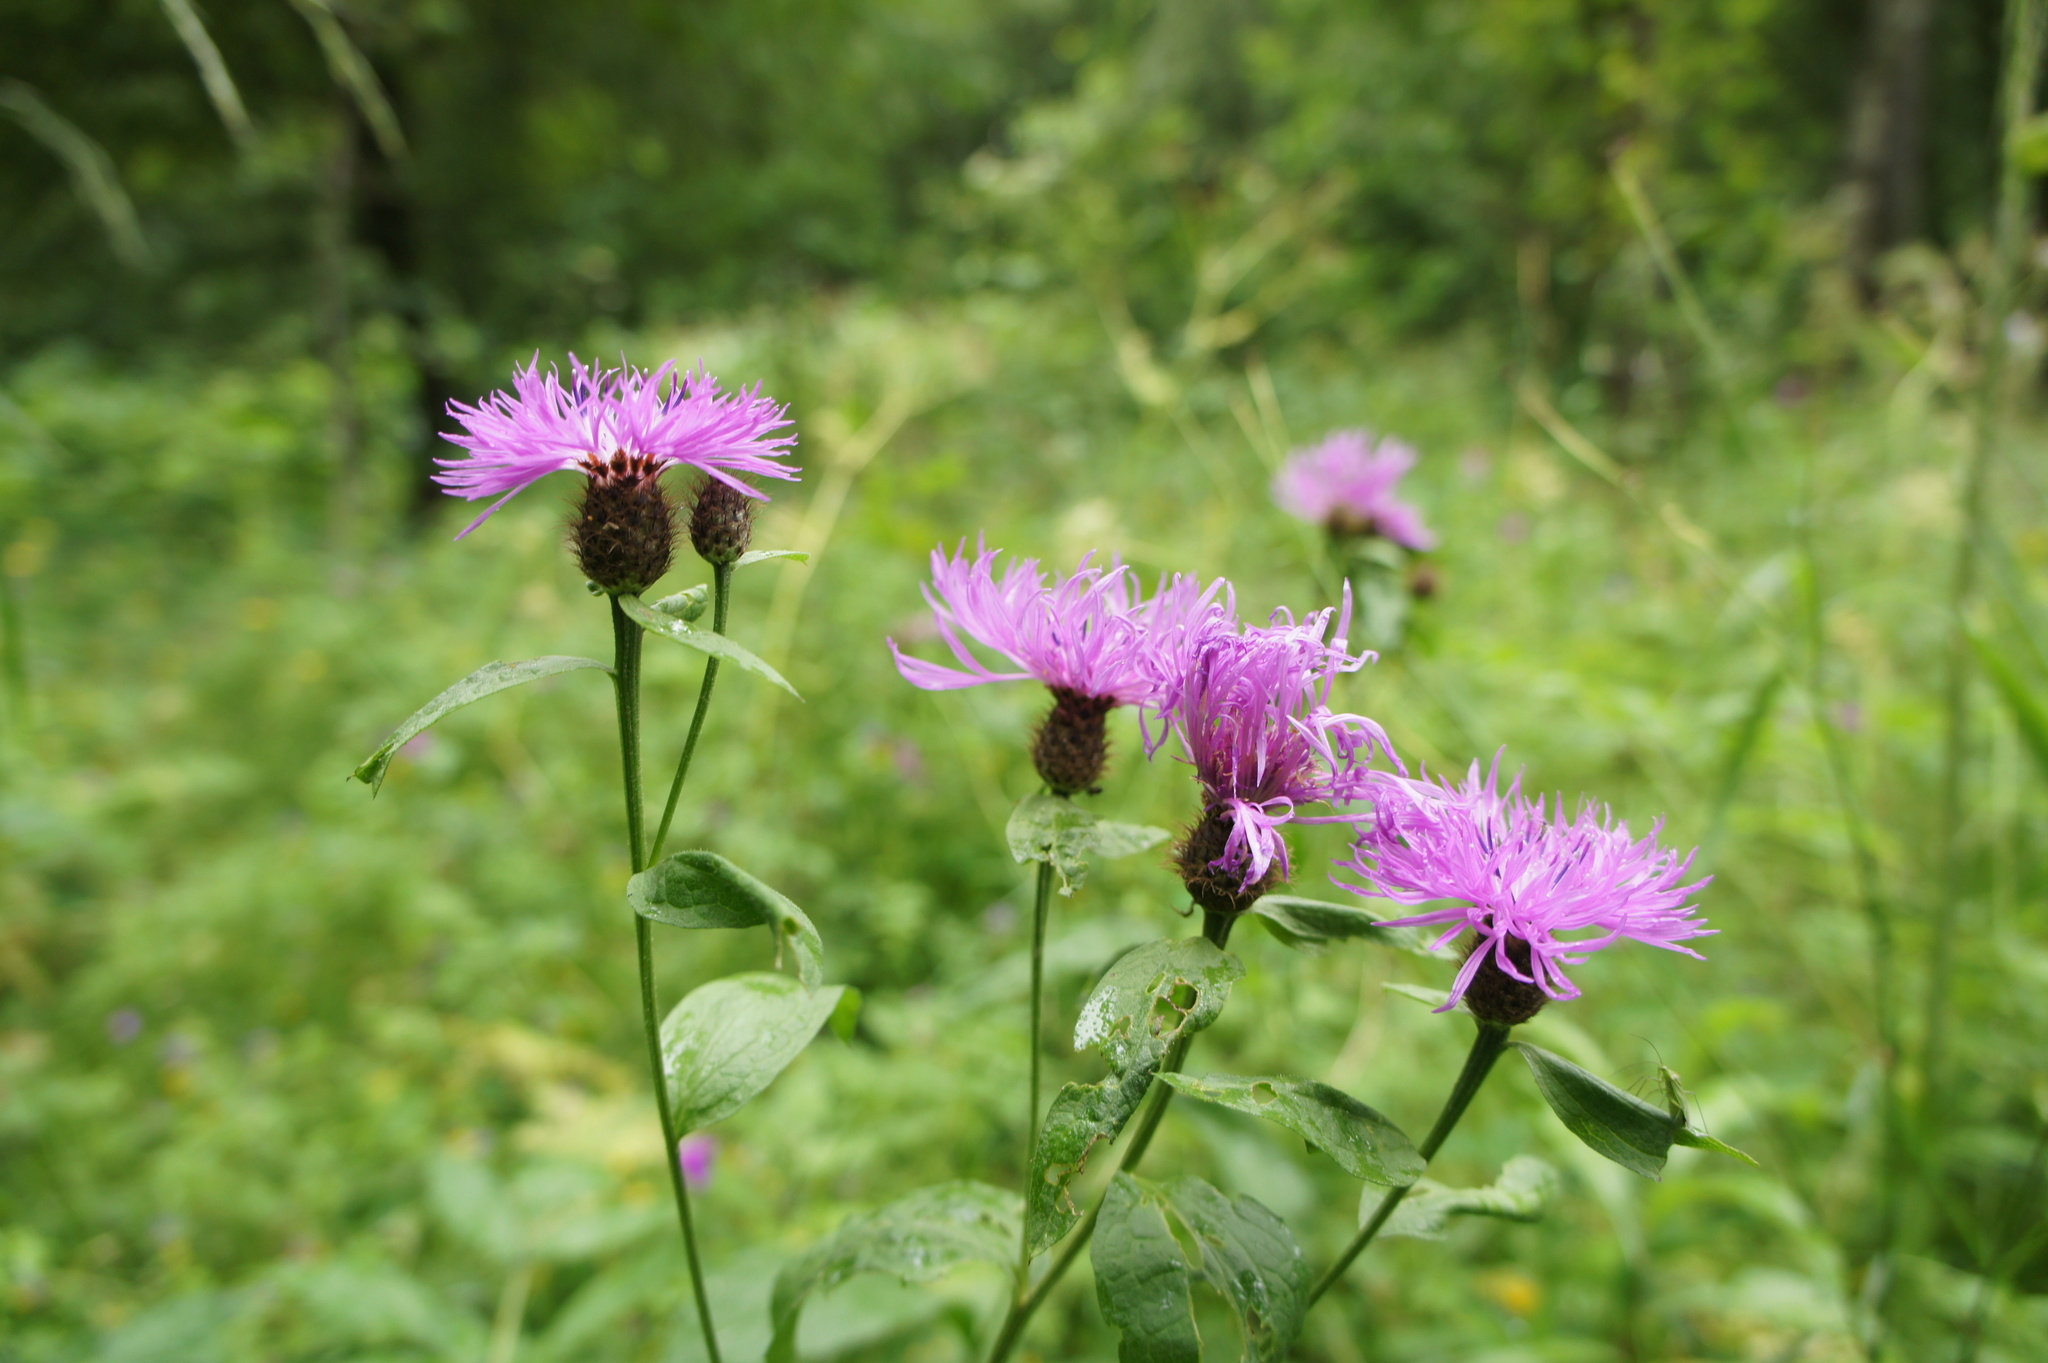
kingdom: Plantae
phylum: Tracheophyta
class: Magnoliopsida
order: Asterales
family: Asteraceae
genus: Centaurea
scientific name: Centaurea phrygia
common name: Wig knapweed
